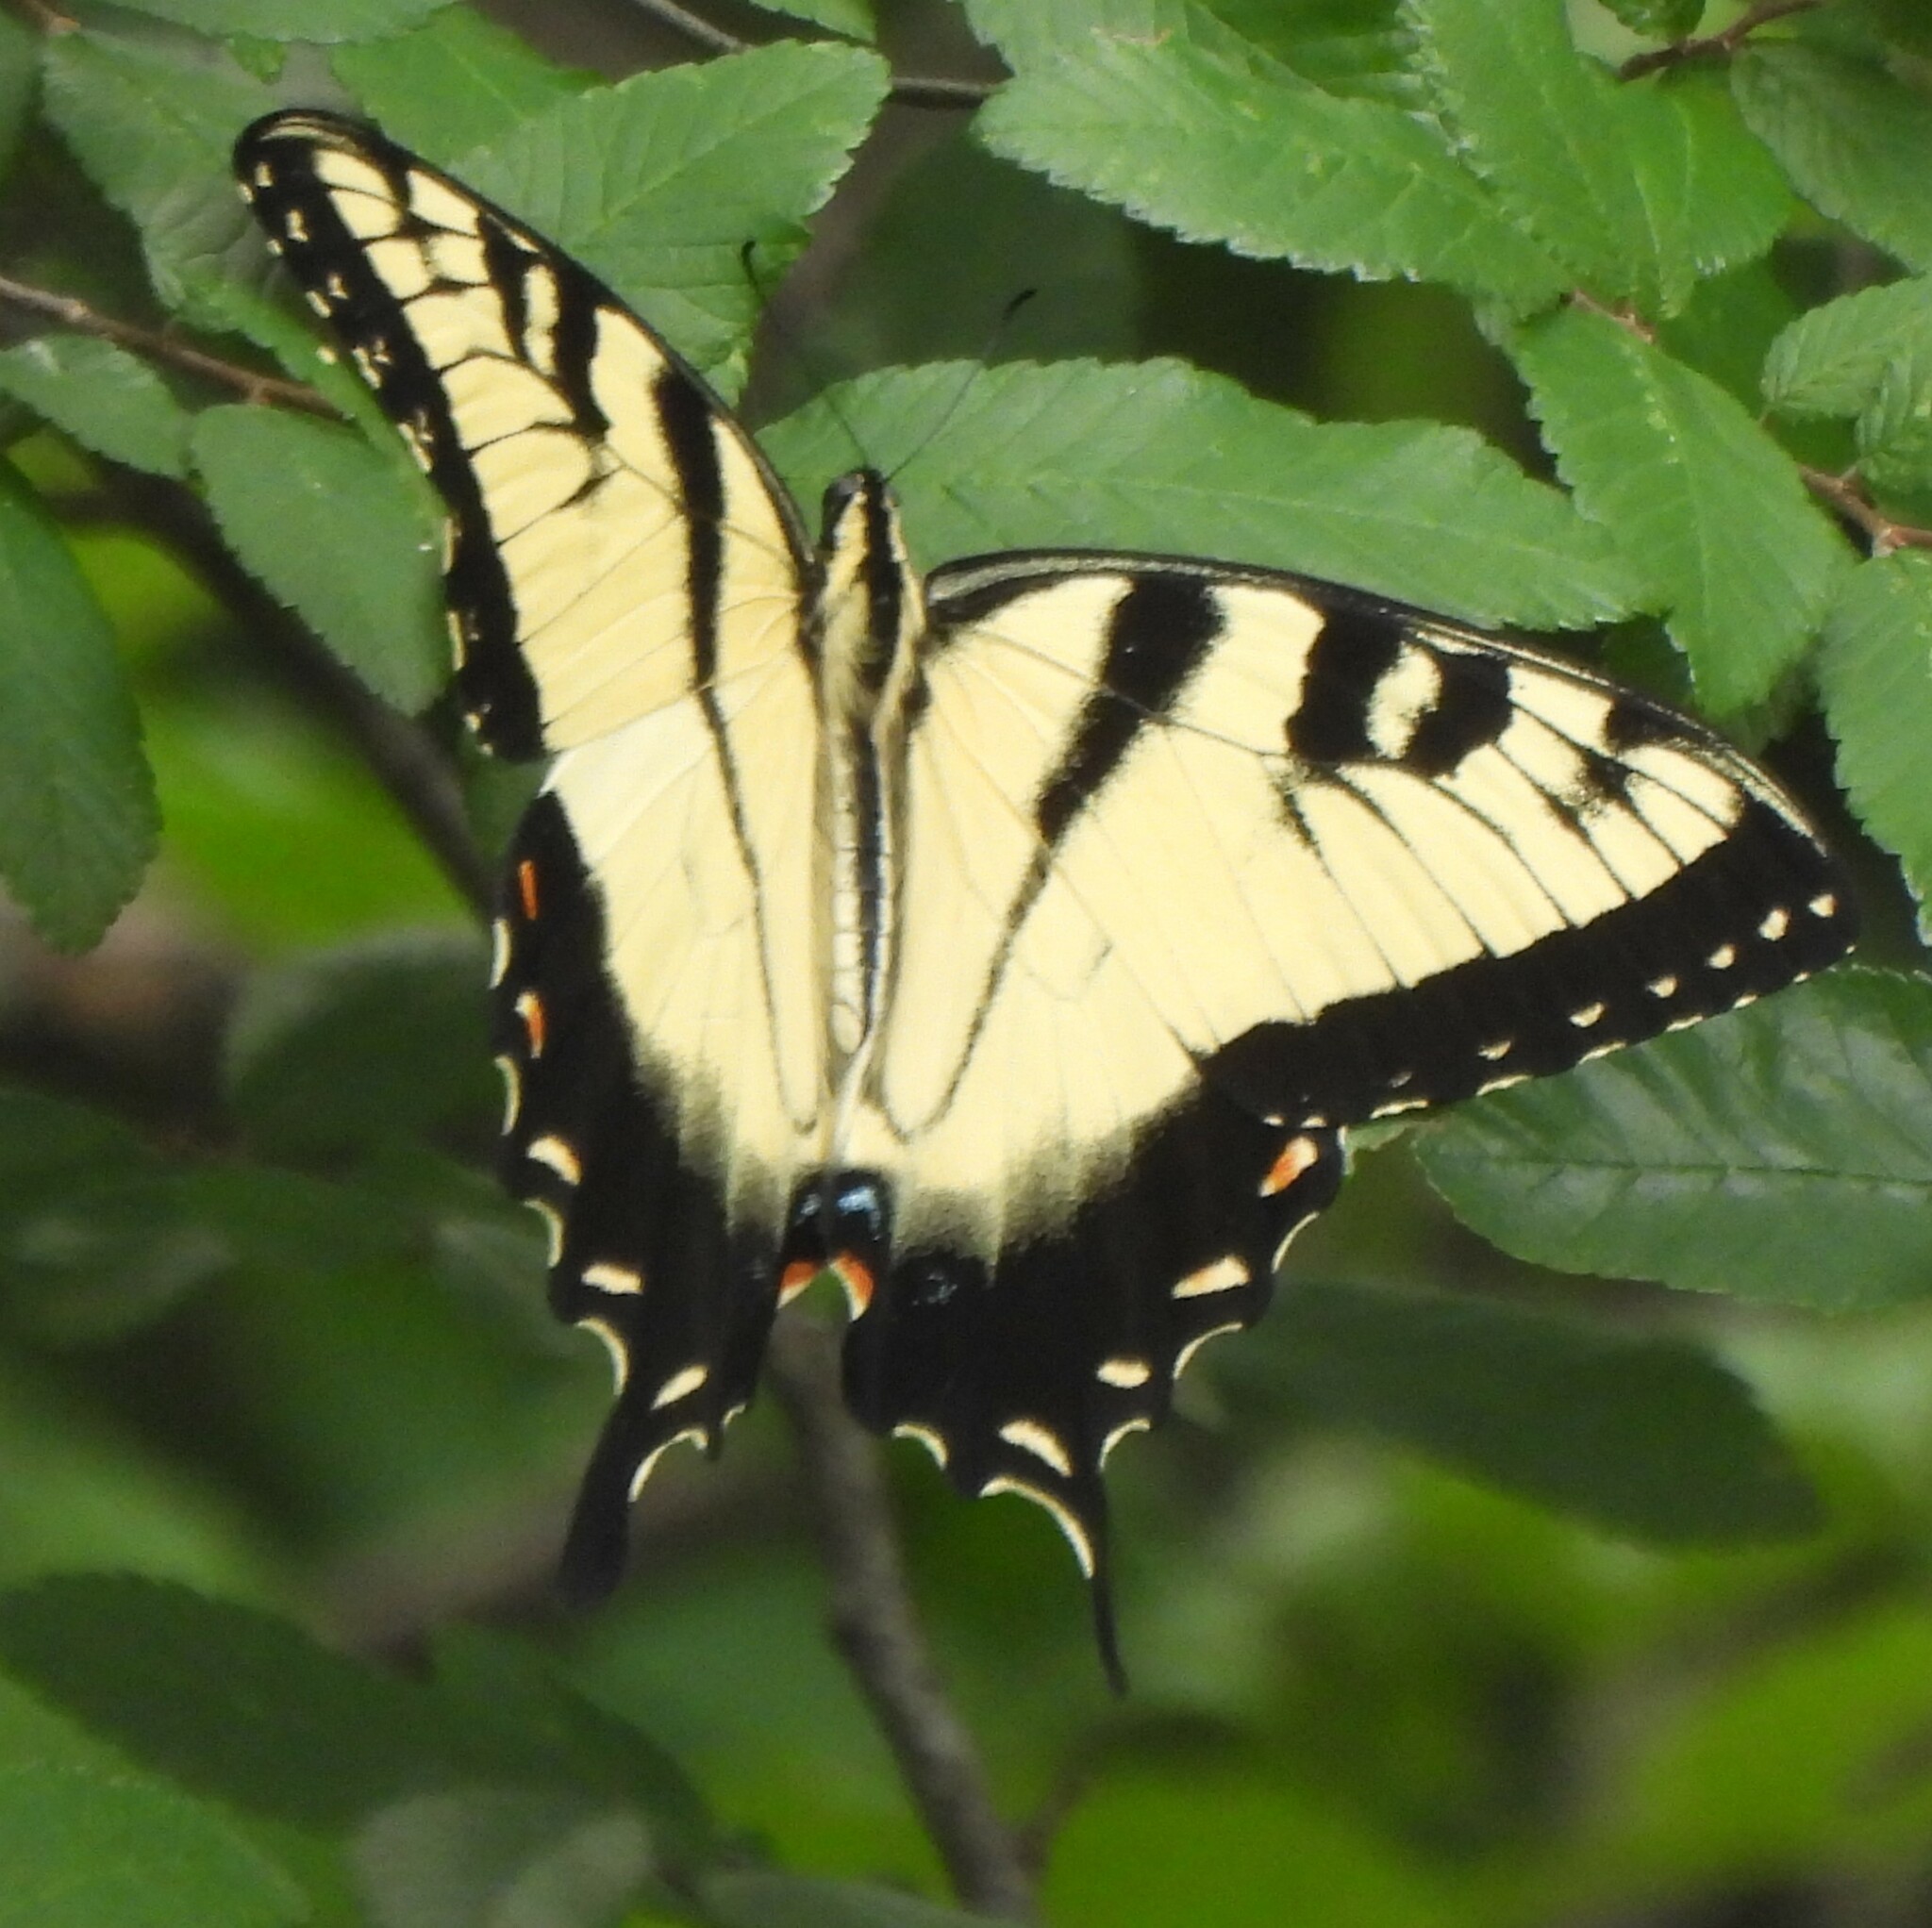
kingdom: Animalia
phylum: Arthropoda
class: Insecta
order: Lepidoptera
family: Papilionidae
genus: Papilio
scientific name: Papilio glaucus
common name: Tiger swallowtail
